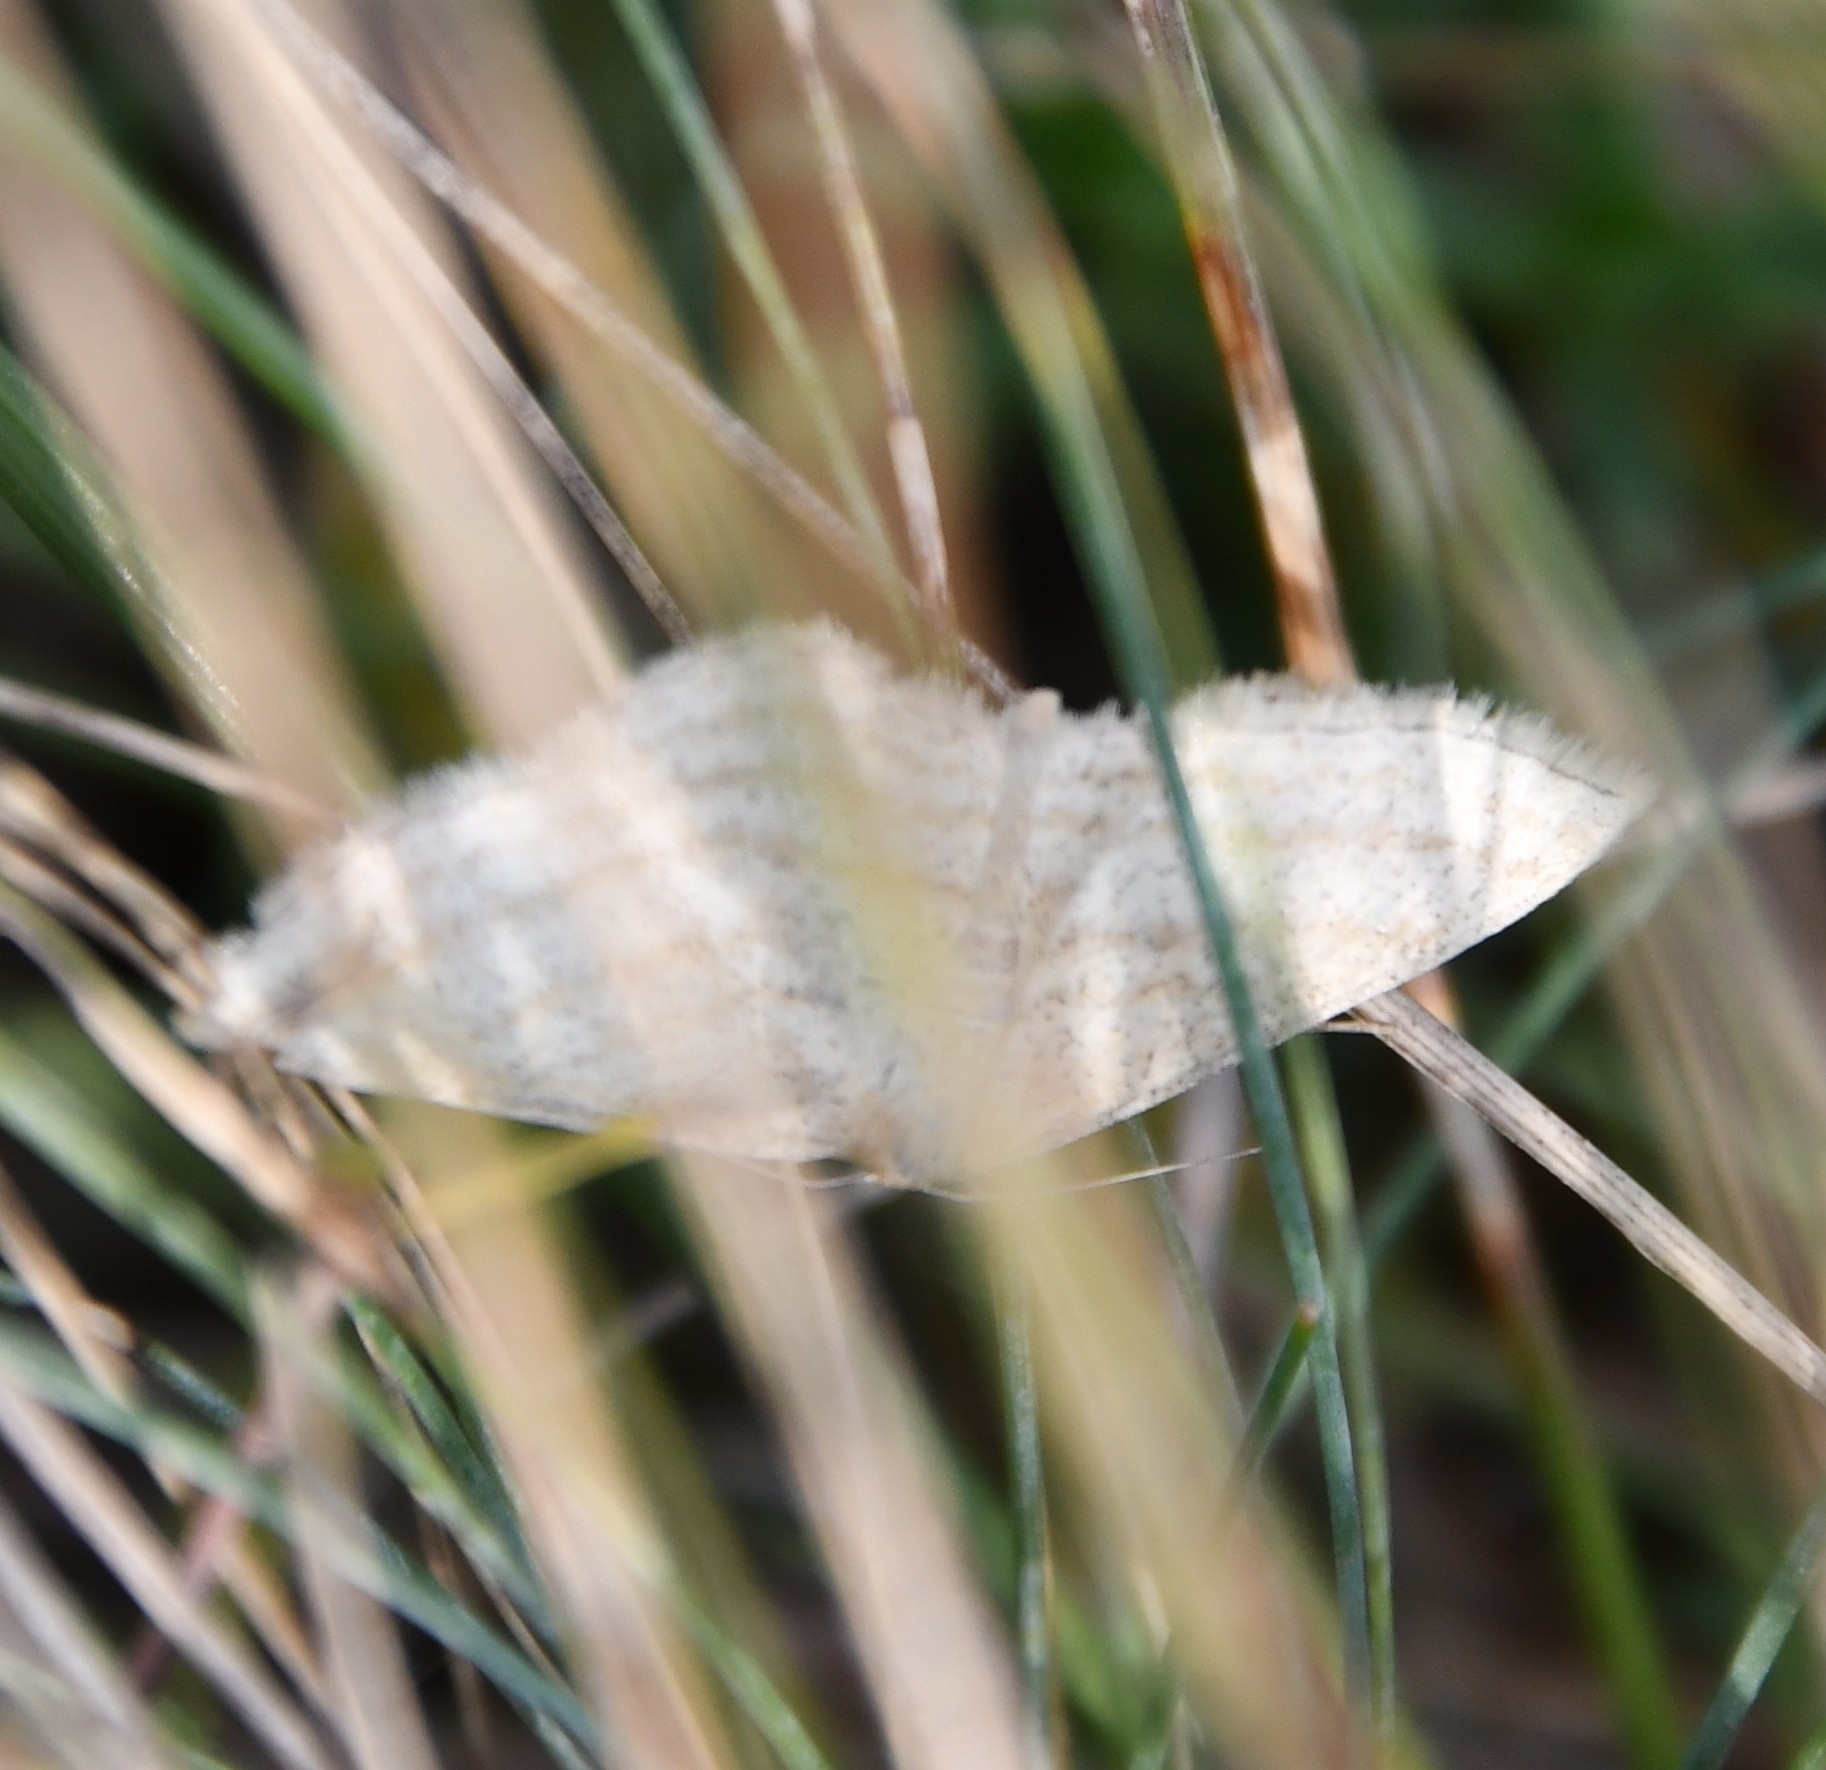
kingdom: Animalia
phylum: Arthropoda
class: Insecta
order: Lepidoptera
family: Geometridae
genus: Scopula
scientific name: Scopula virgulata
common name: Streaked wave
